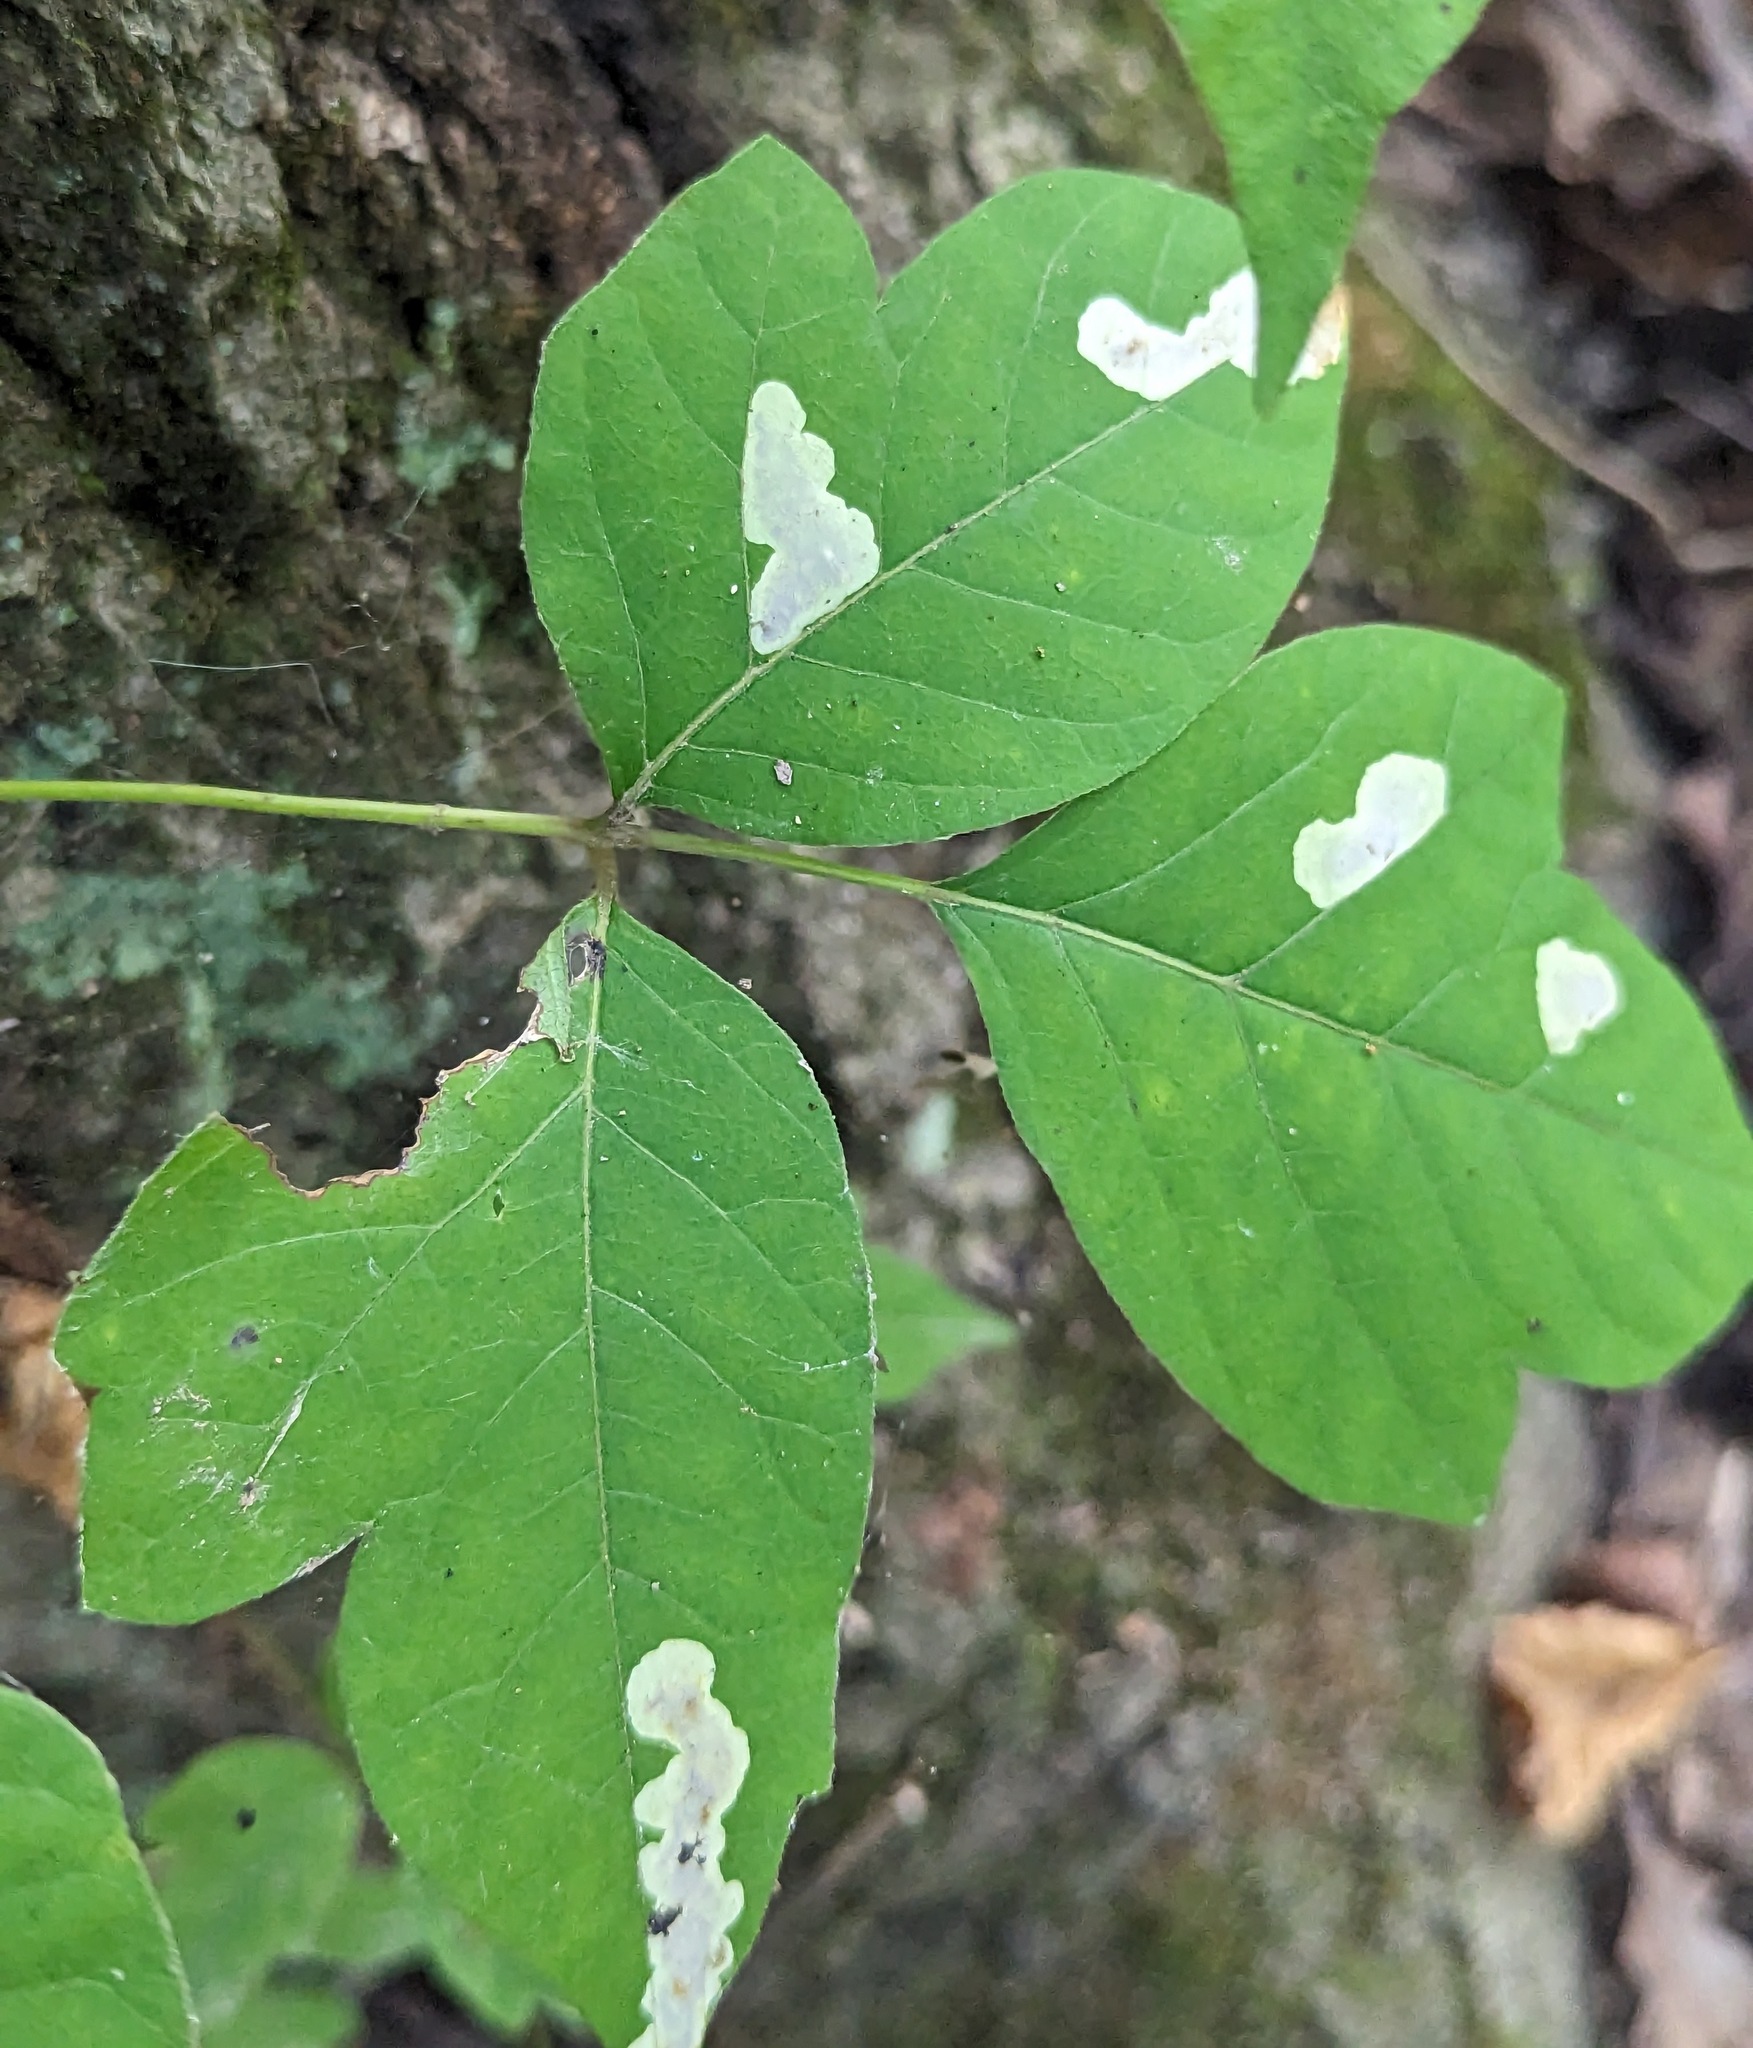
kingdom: Animalia
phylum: Arthropoda
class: Insecta
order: Lepidoptera
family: Gracillariidae
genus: Cameraria
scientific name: Cameraria guttifinitella
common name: Poison ivy leaf-miner moth
